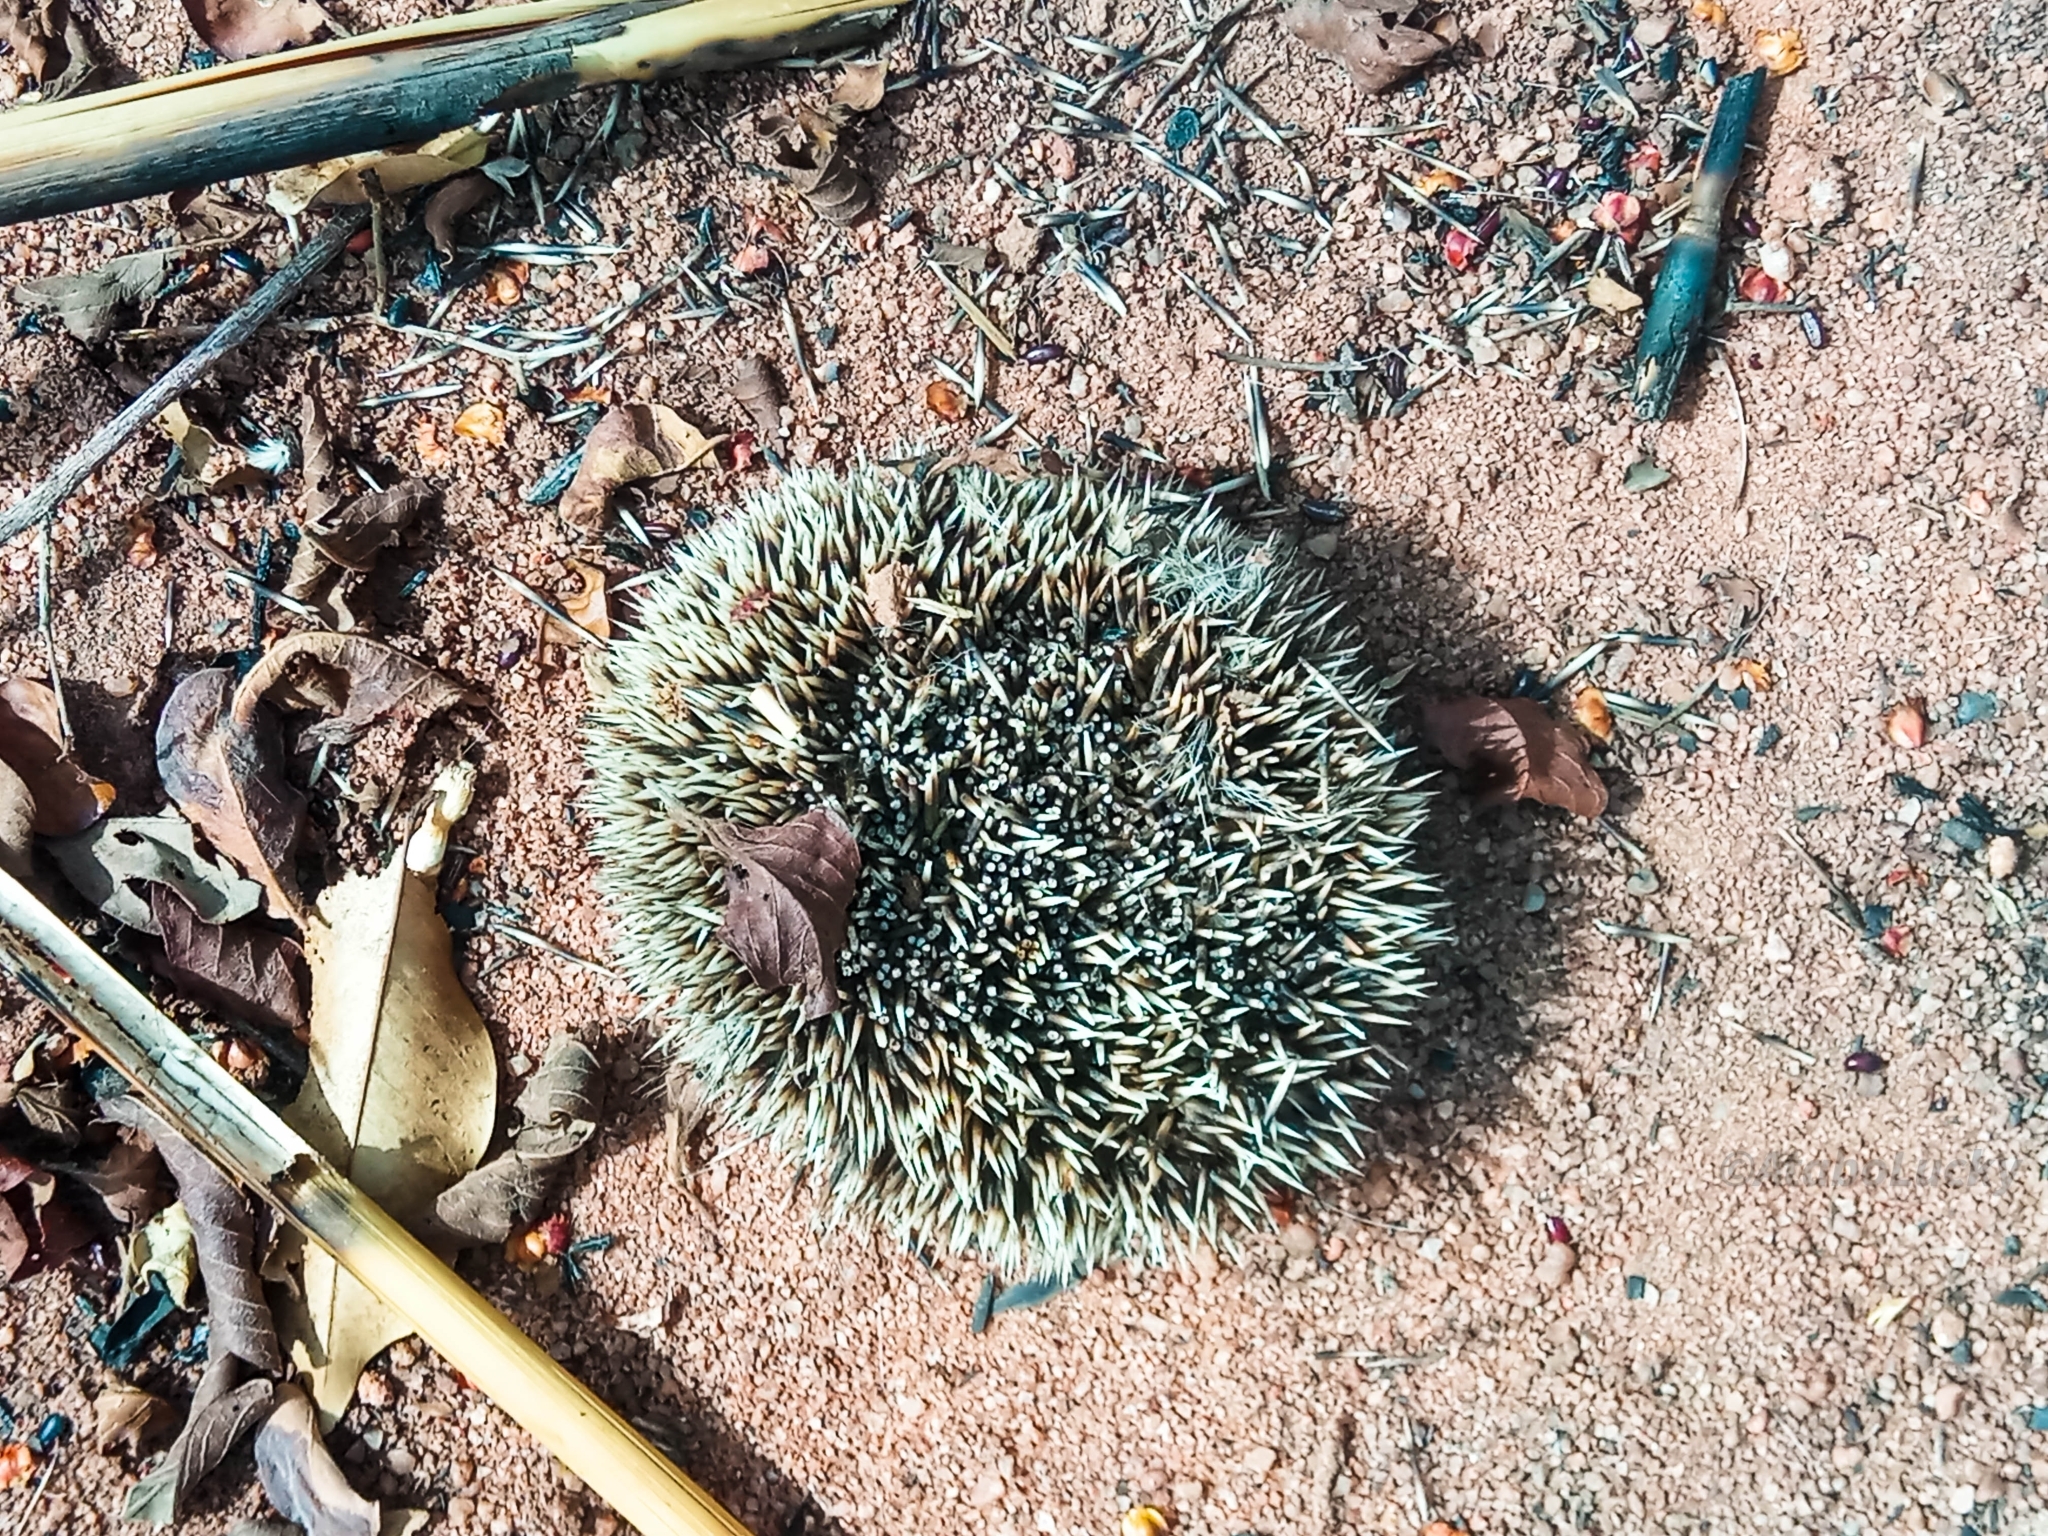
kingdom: Animalia
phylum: Chordata
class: Mammalia
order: Erinaceomorpha
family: Erinaceidae
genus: Atelerix
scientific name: Atelerix albiventris
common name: Four-toed hedgehog
